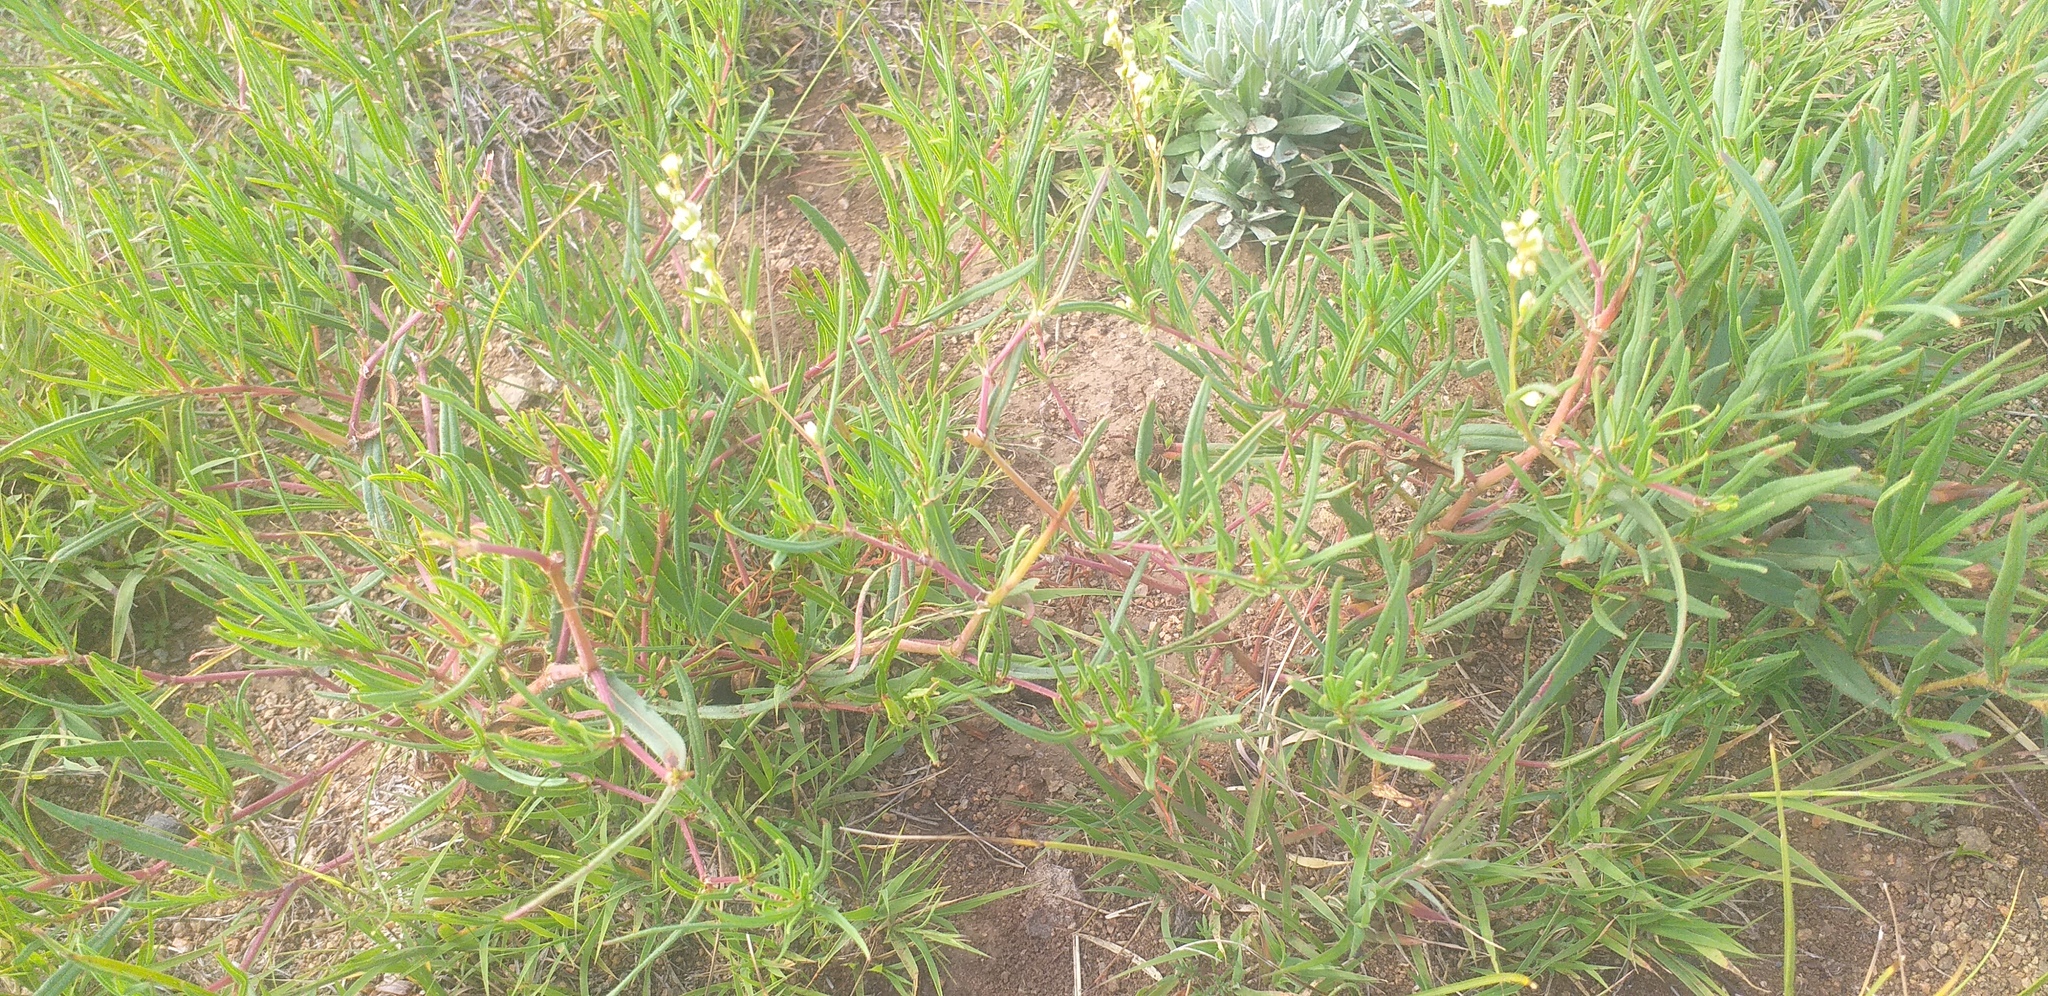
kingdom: Plantae
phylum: Tracheophyta
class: Magnoliopsida
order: Caryophyllales
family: Polygonaceae
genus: Koenigia
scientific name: Koenigia divaricata
